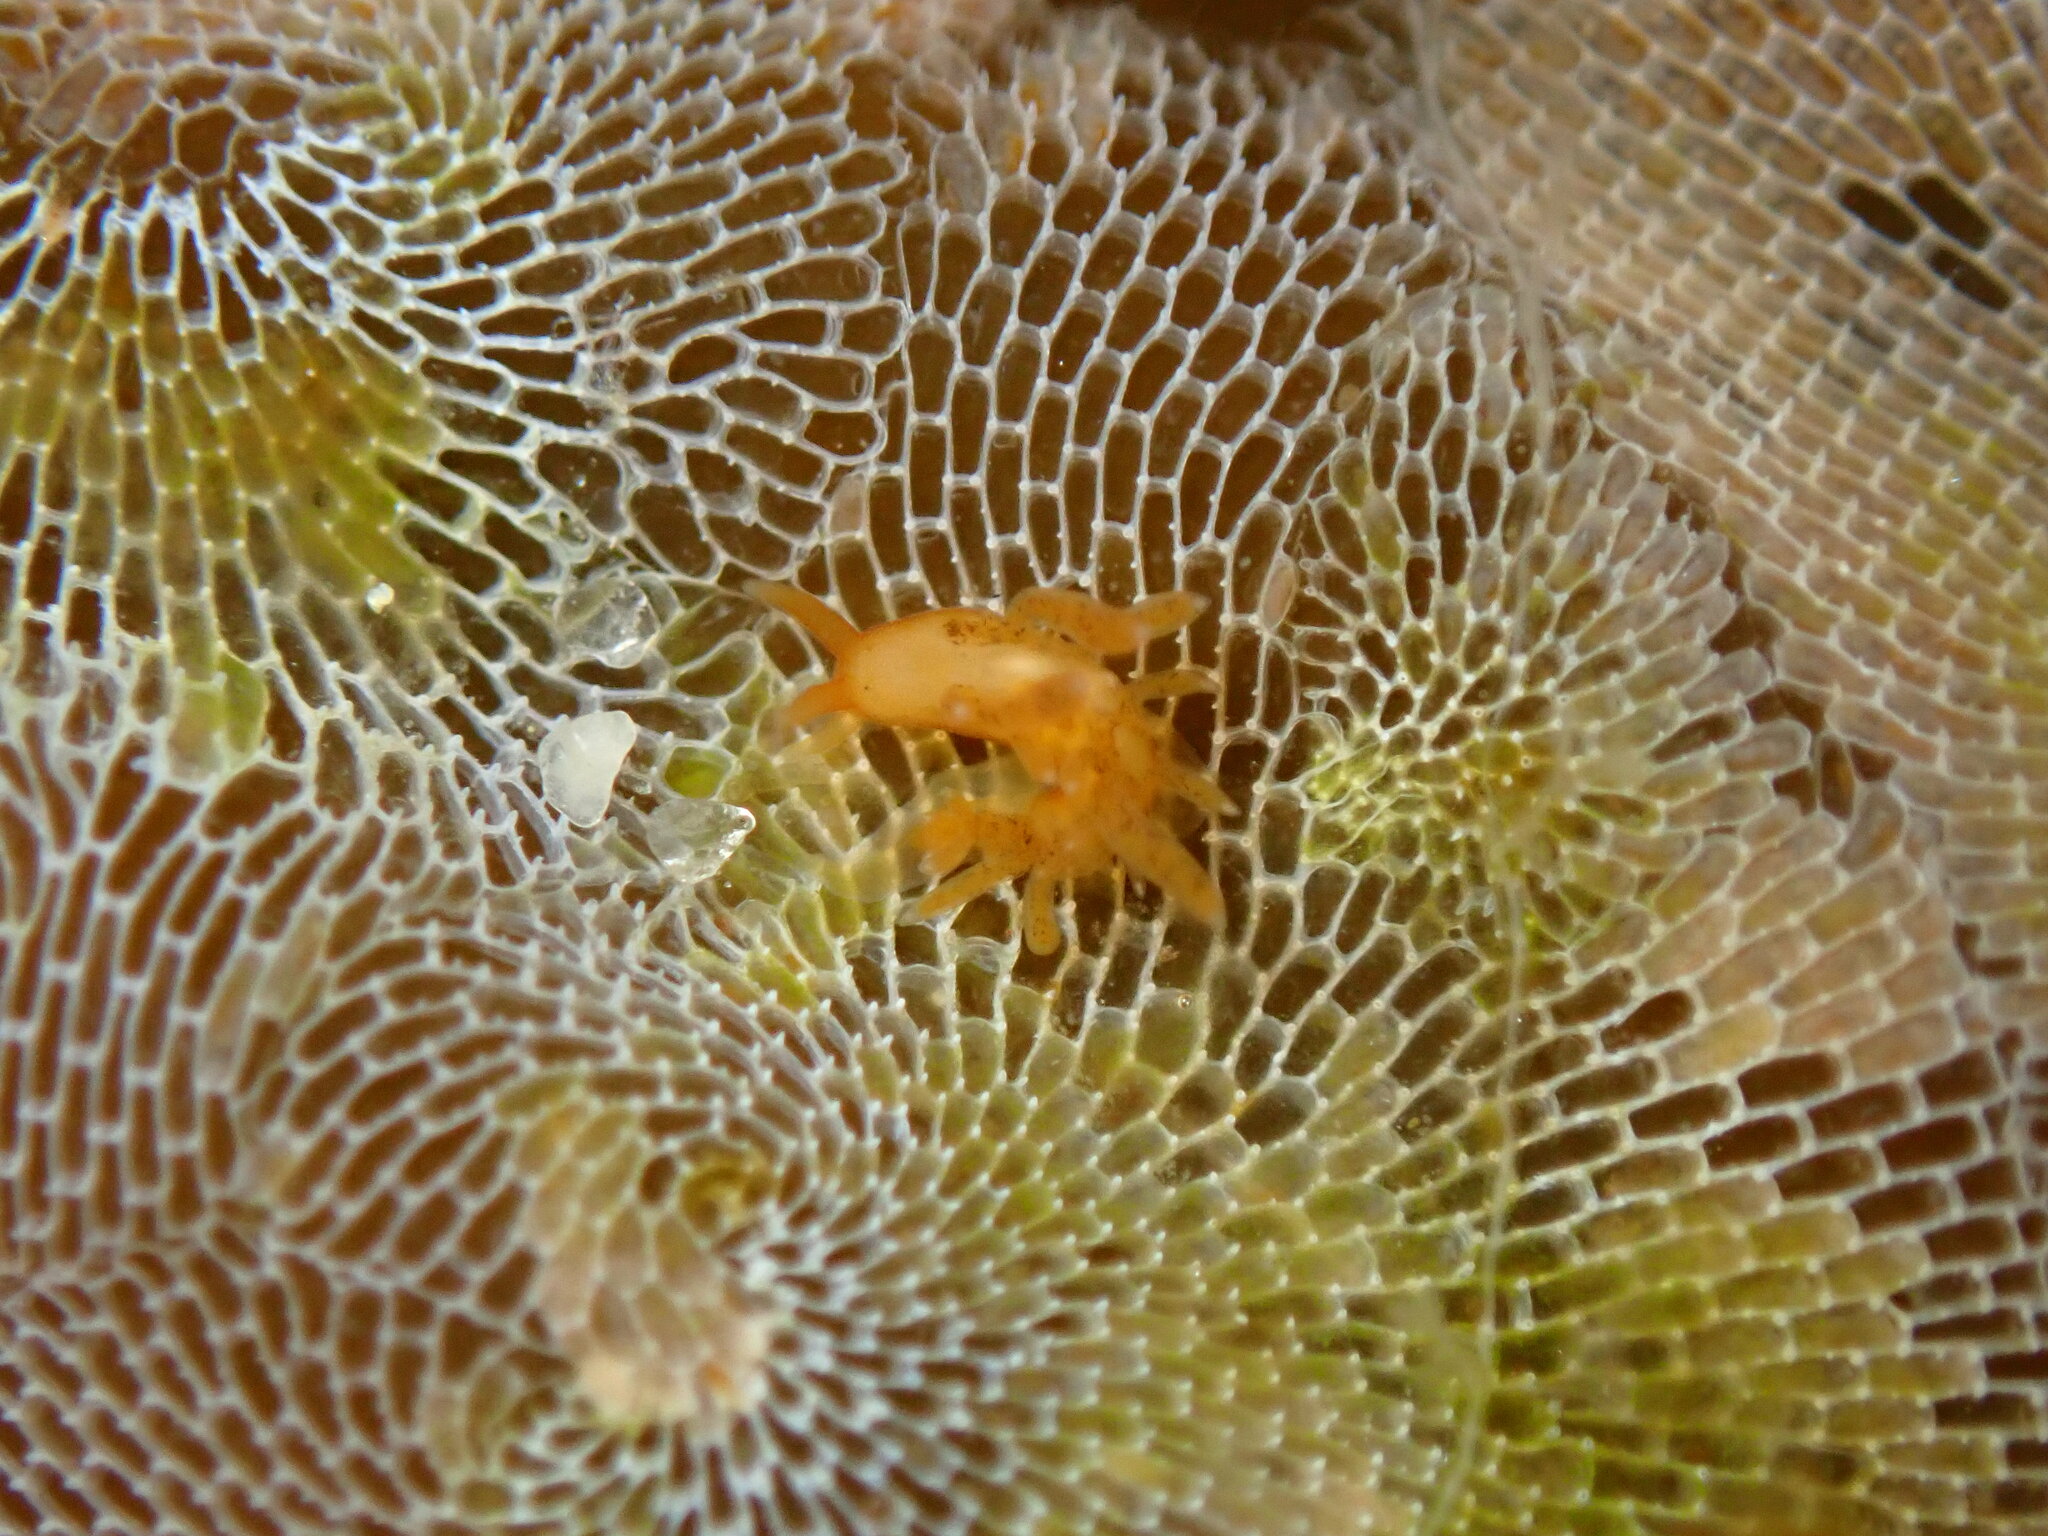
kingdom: Animalia
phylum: Mollusca
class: Gastropoda
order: Nudibranchia
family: Cuthonidae
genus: Cuthona
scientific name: Cuthona phoenix
